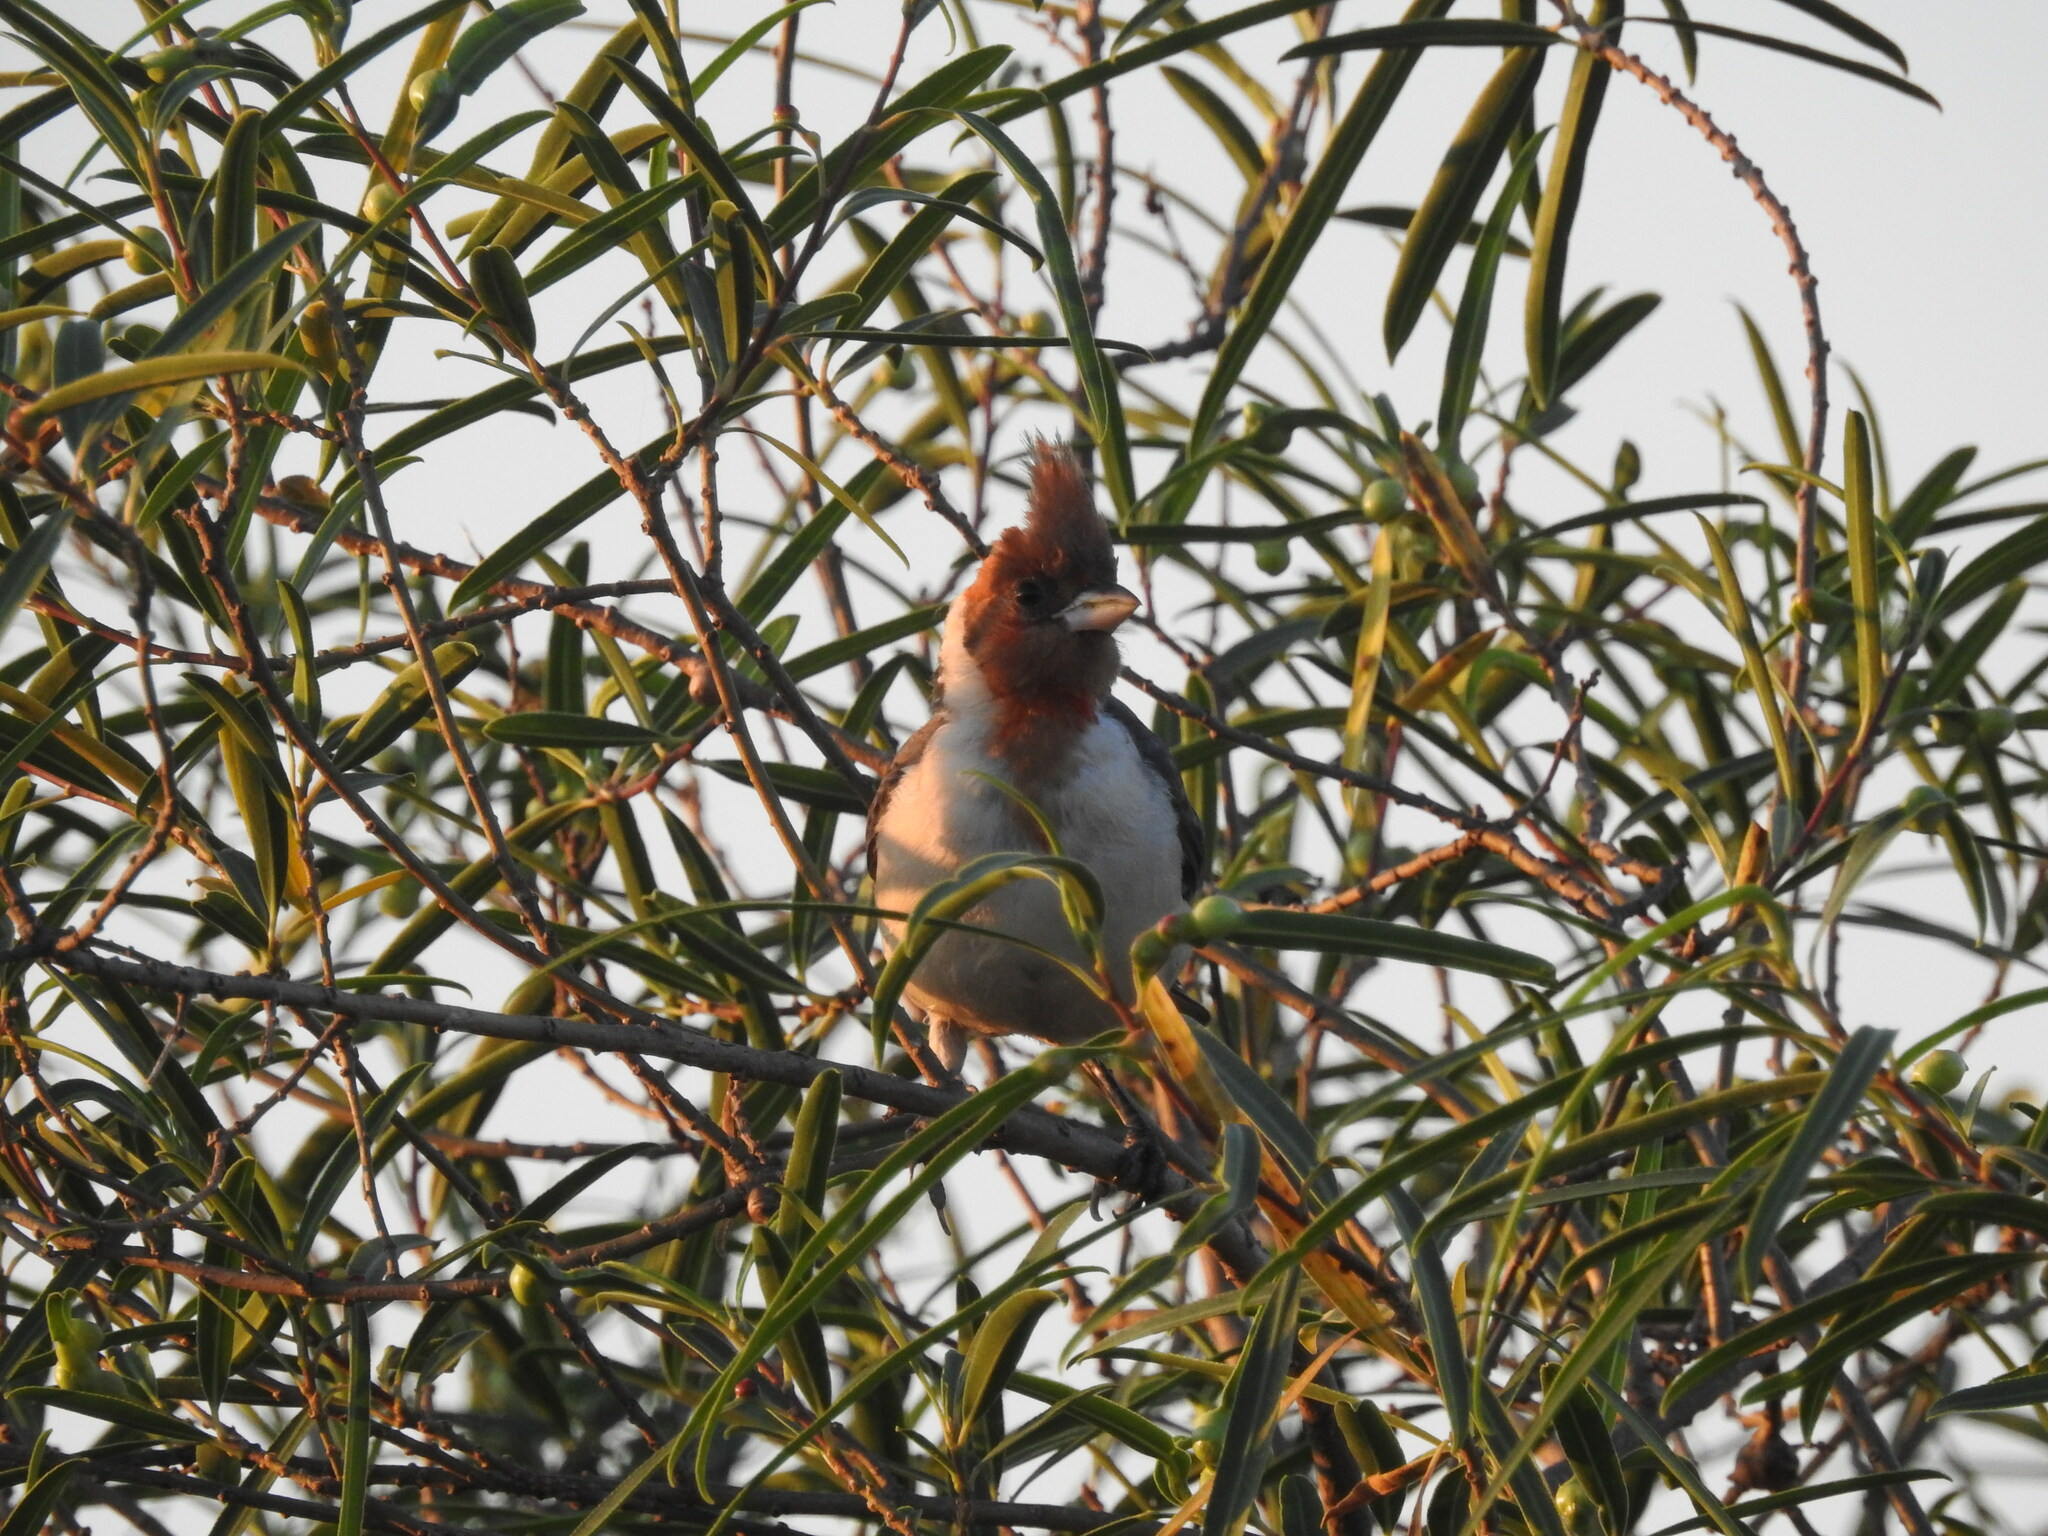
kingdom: Animalia
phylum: Chordata
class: Aves
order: Passeriformes
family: Thraupidae
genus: Paroaria
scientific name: Paroaria coronata
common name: Red-crested cardinal
